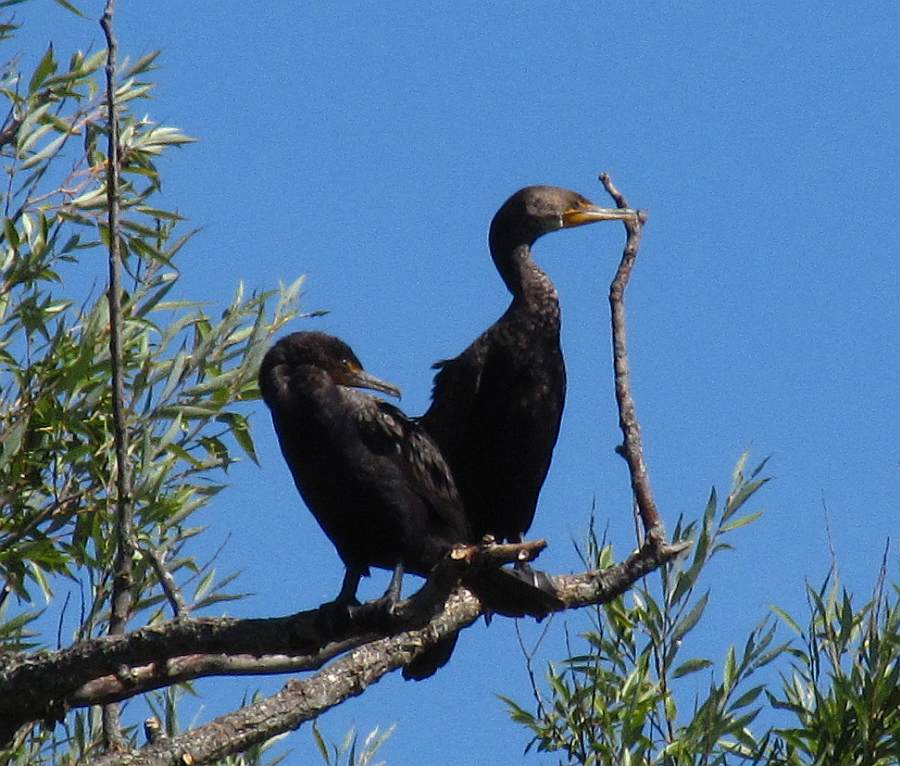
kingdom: Animalia
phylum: Chordata
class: Aves
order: Suliformes
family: Phalacrocoracidae
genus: Phalacrocorax
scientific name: Phalacrocorax auritus
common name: Double-crested cormorant
